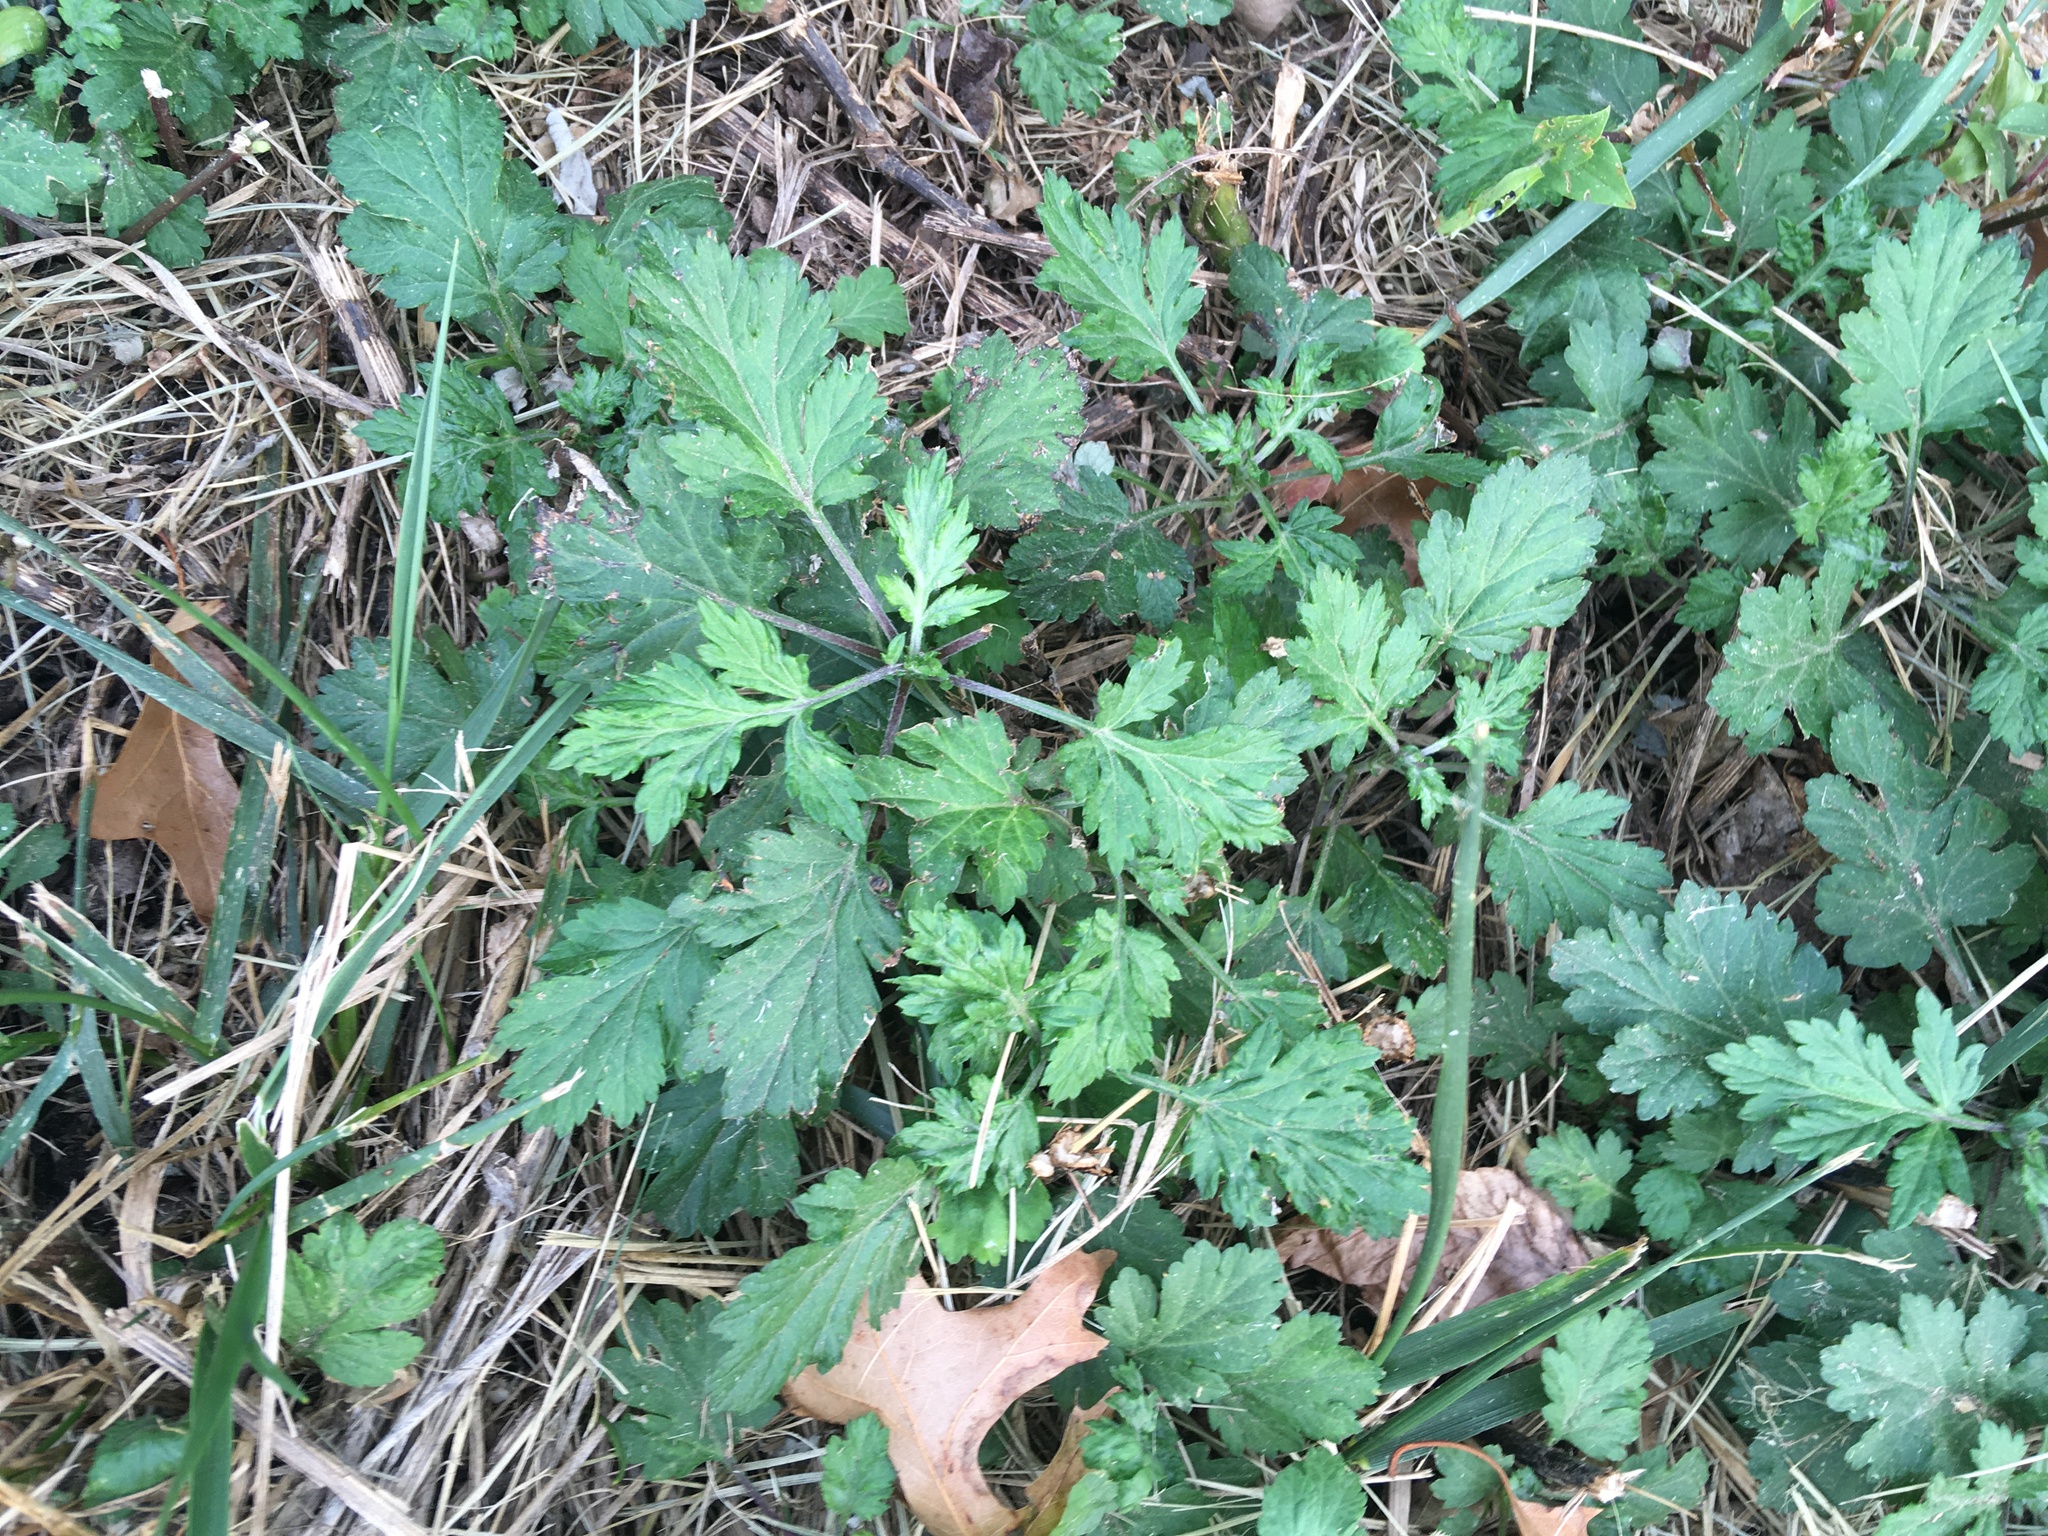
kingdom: Plantae
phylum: Tracheophyta
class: Magnoliopsida
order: Asterales
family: Asteraceae
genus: Artemisia
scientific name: Artemisia vulgaris
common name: Mugwort
